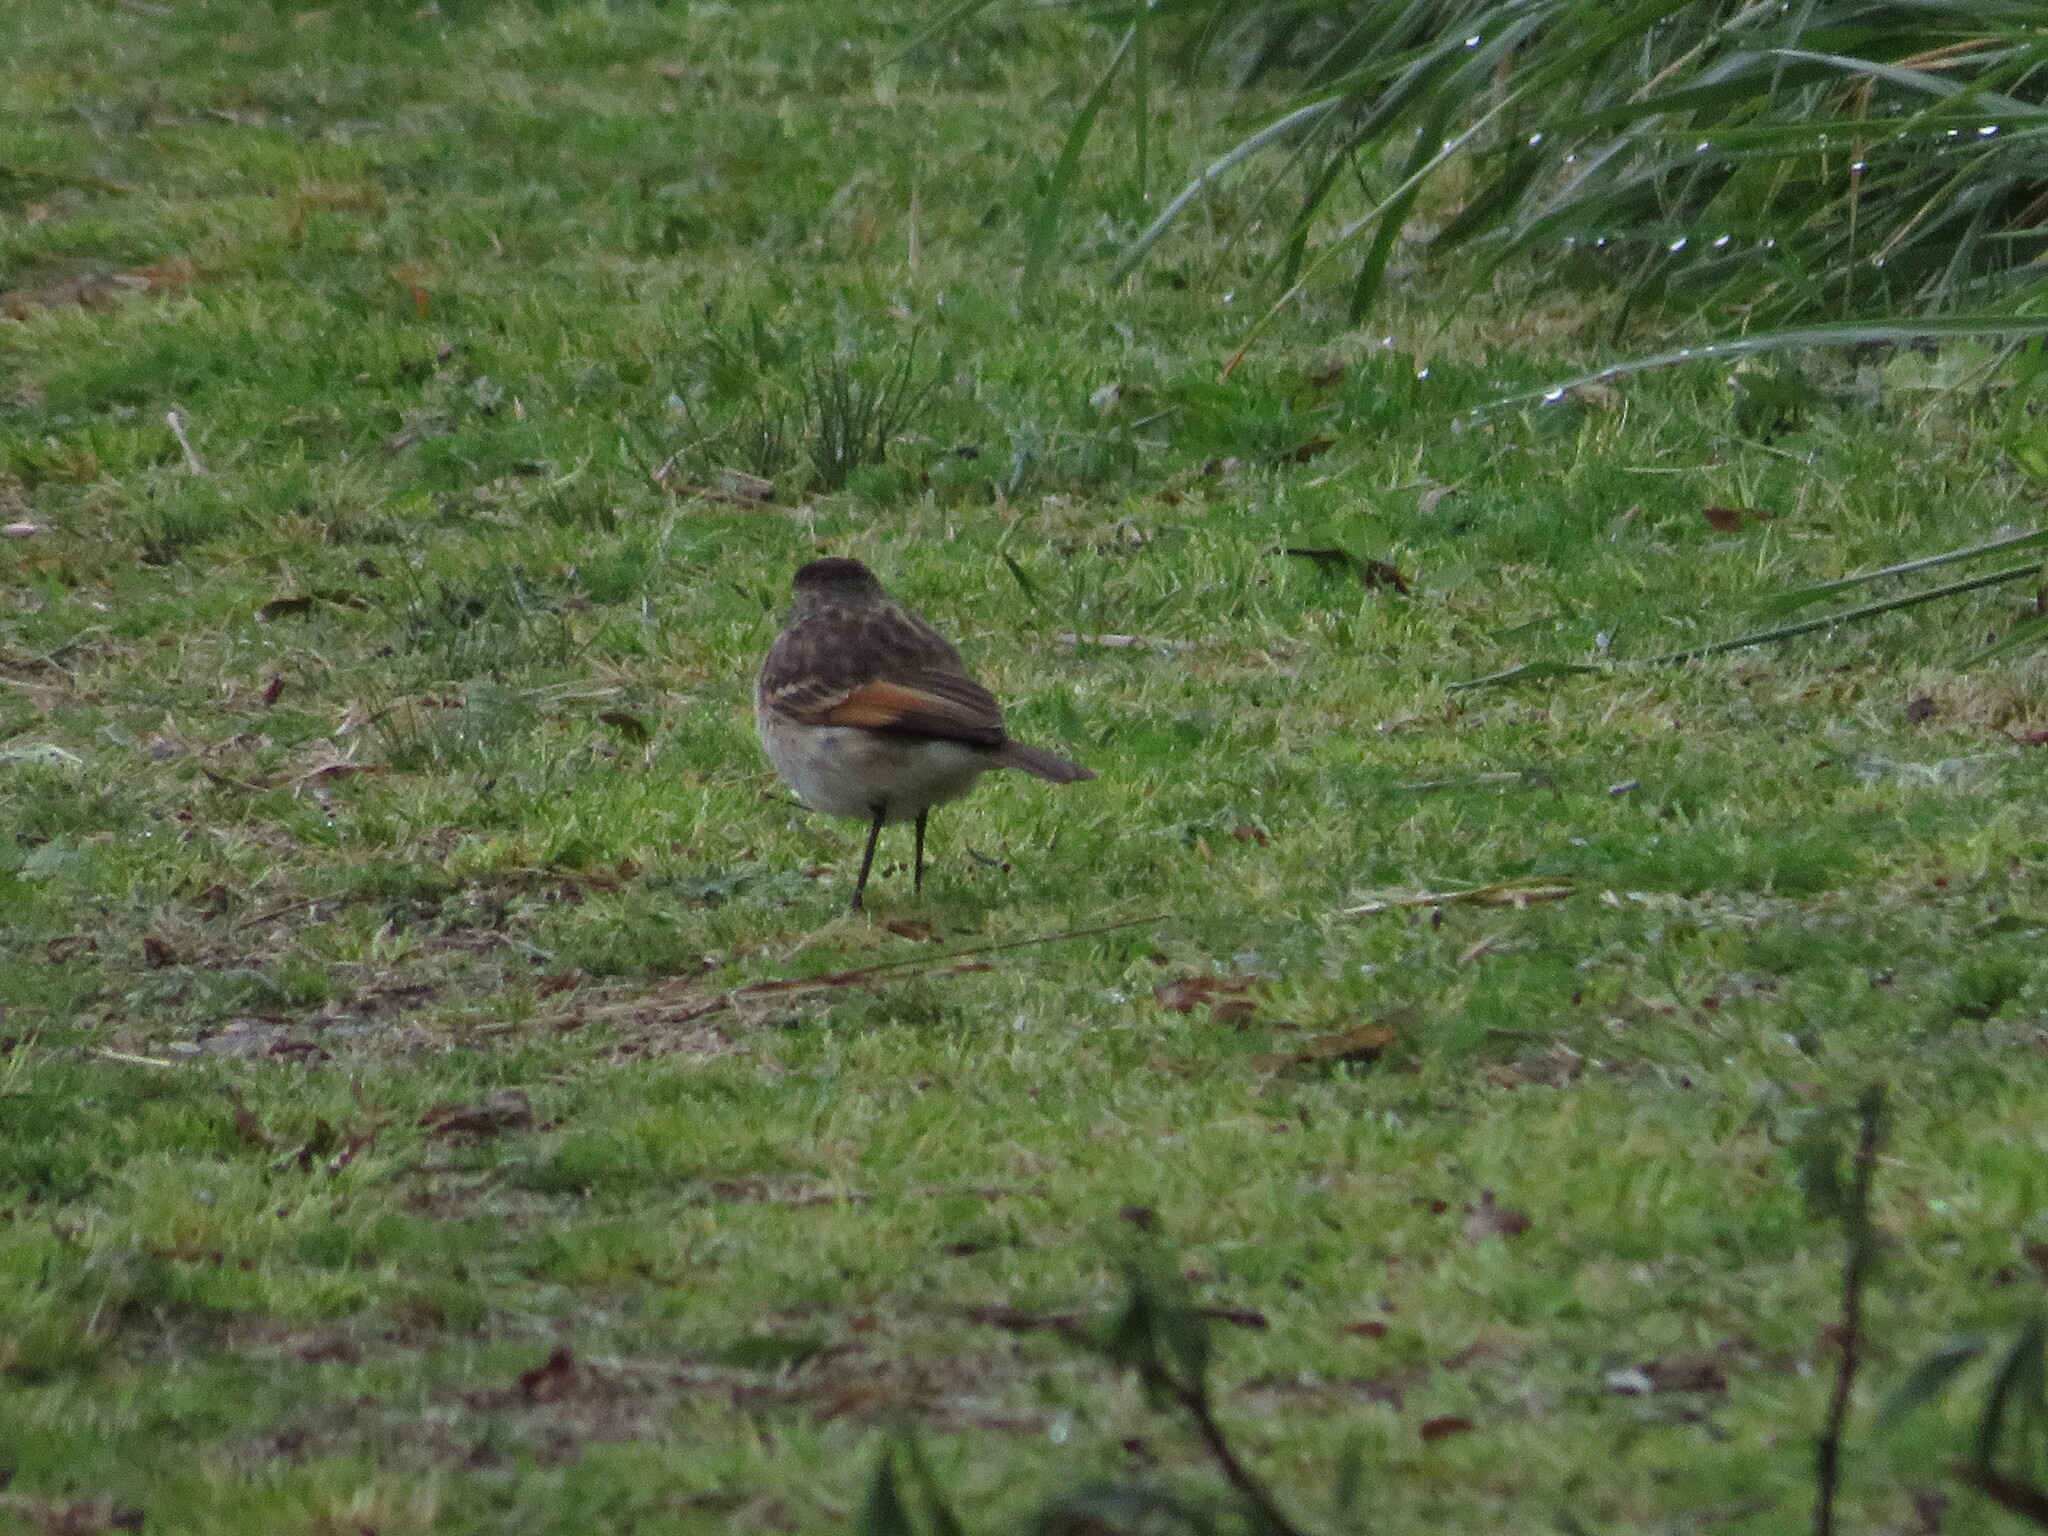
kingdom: Animalia
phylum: Chordata
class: Aves
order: Passeriformes
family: Tyrannidae
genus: Hymenops
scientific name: Hymenops perspicillatus
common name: Spectacled tyrant
